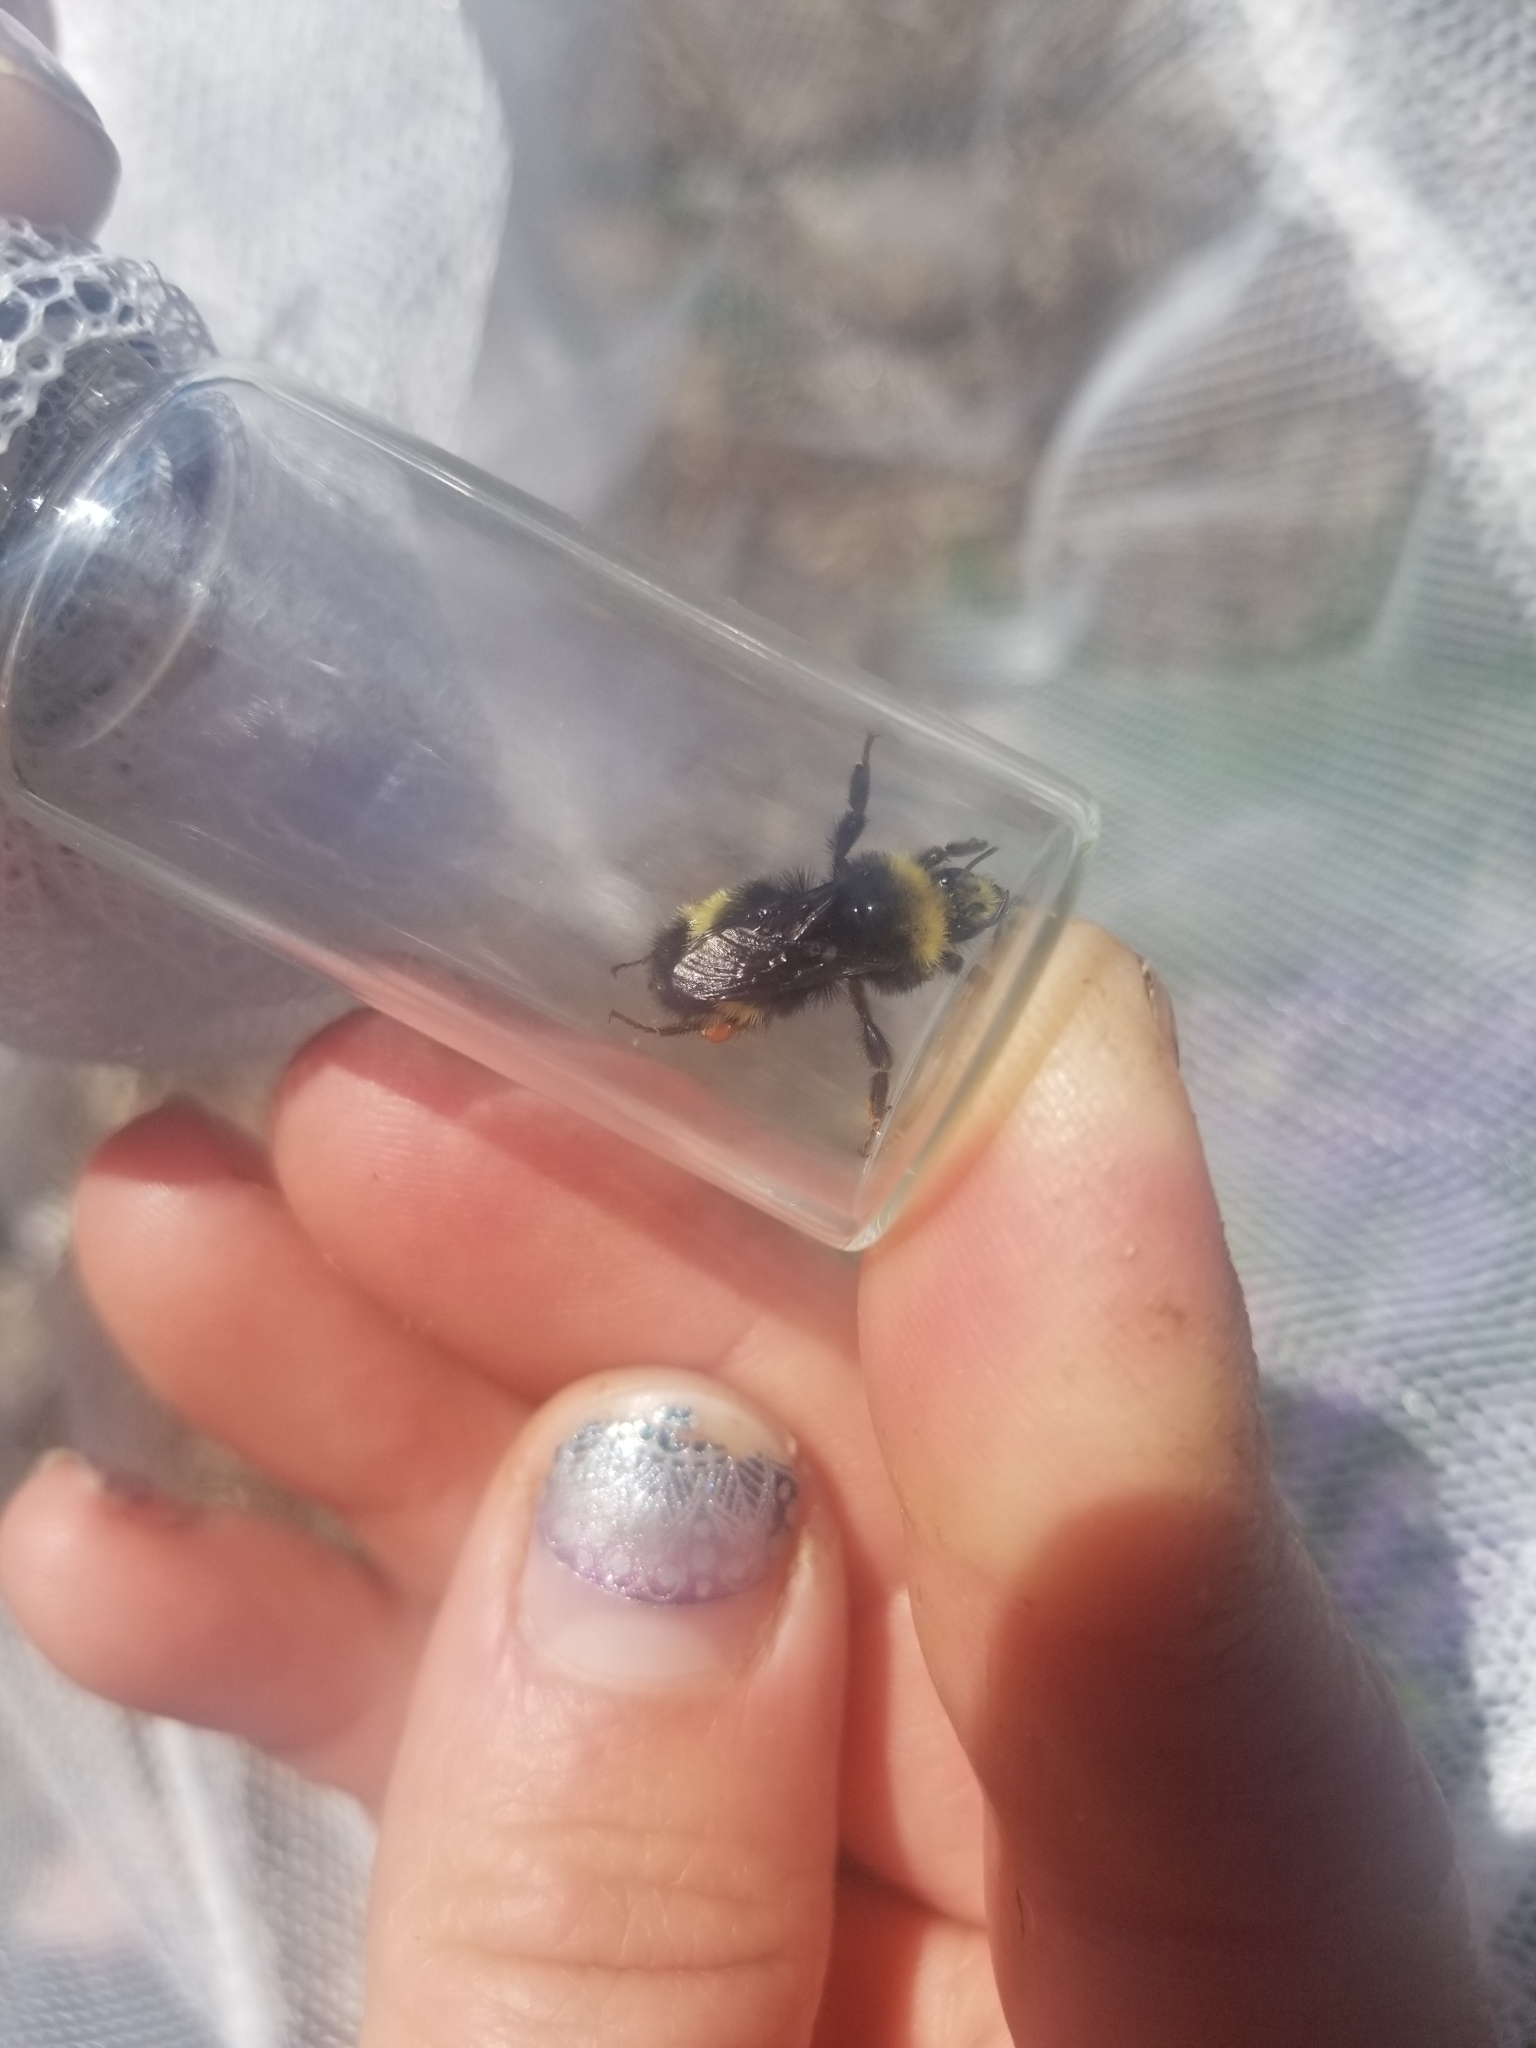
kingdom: Animalia
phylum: Arthropoda
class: Insecta
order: Hymenoptera
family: Apidae
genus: Bombus
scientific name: Bombus vandykei
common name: Van dyke bumble bee
